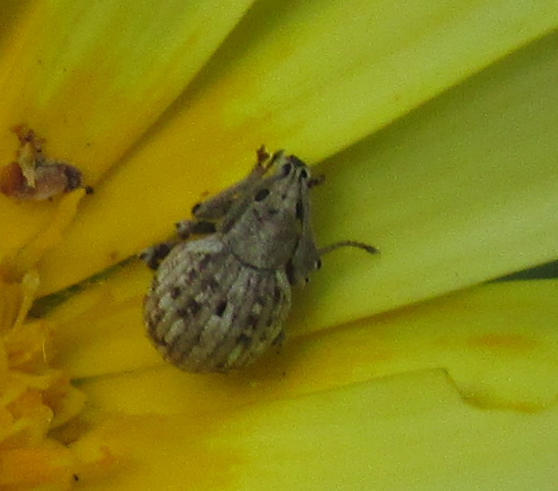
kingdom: Animalia
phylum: Arthropoda
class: Insecta
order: Coleoptera
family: Curculionidae
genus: Ellimenistes
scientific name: Ellimenistes laesicollis
